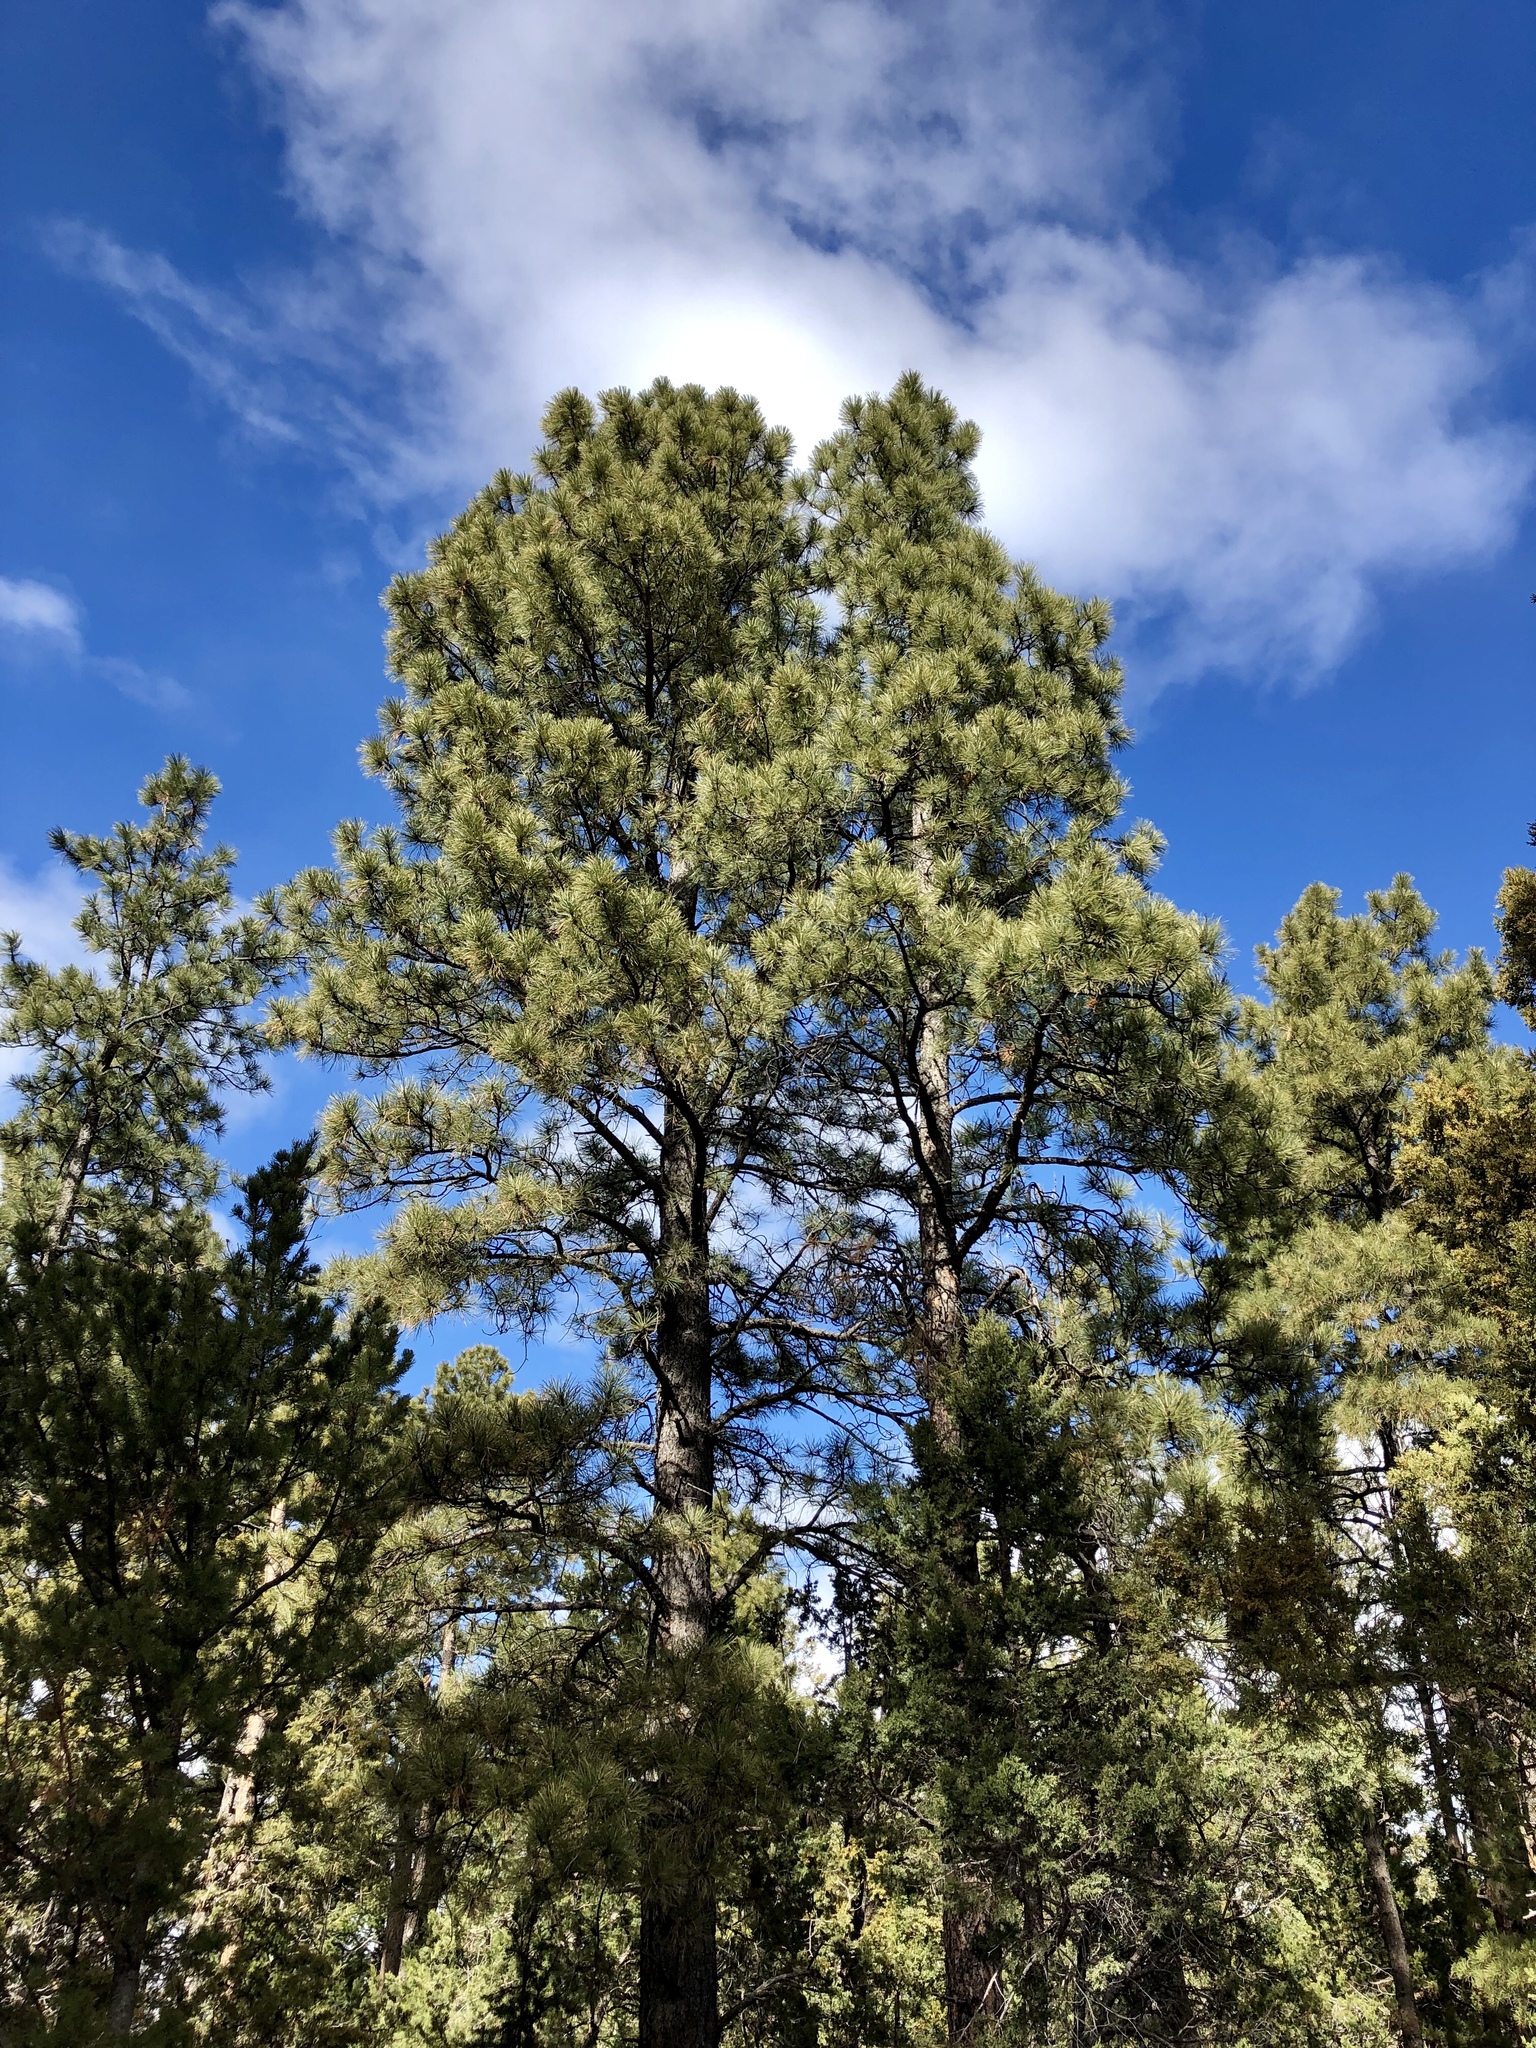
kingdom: Plantae
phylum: Tracheophyta
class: Pinopsida
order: Pinales
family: Pinaceae
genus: Pinus
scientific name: Pinus ponderosa
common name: Western yellow-pine
